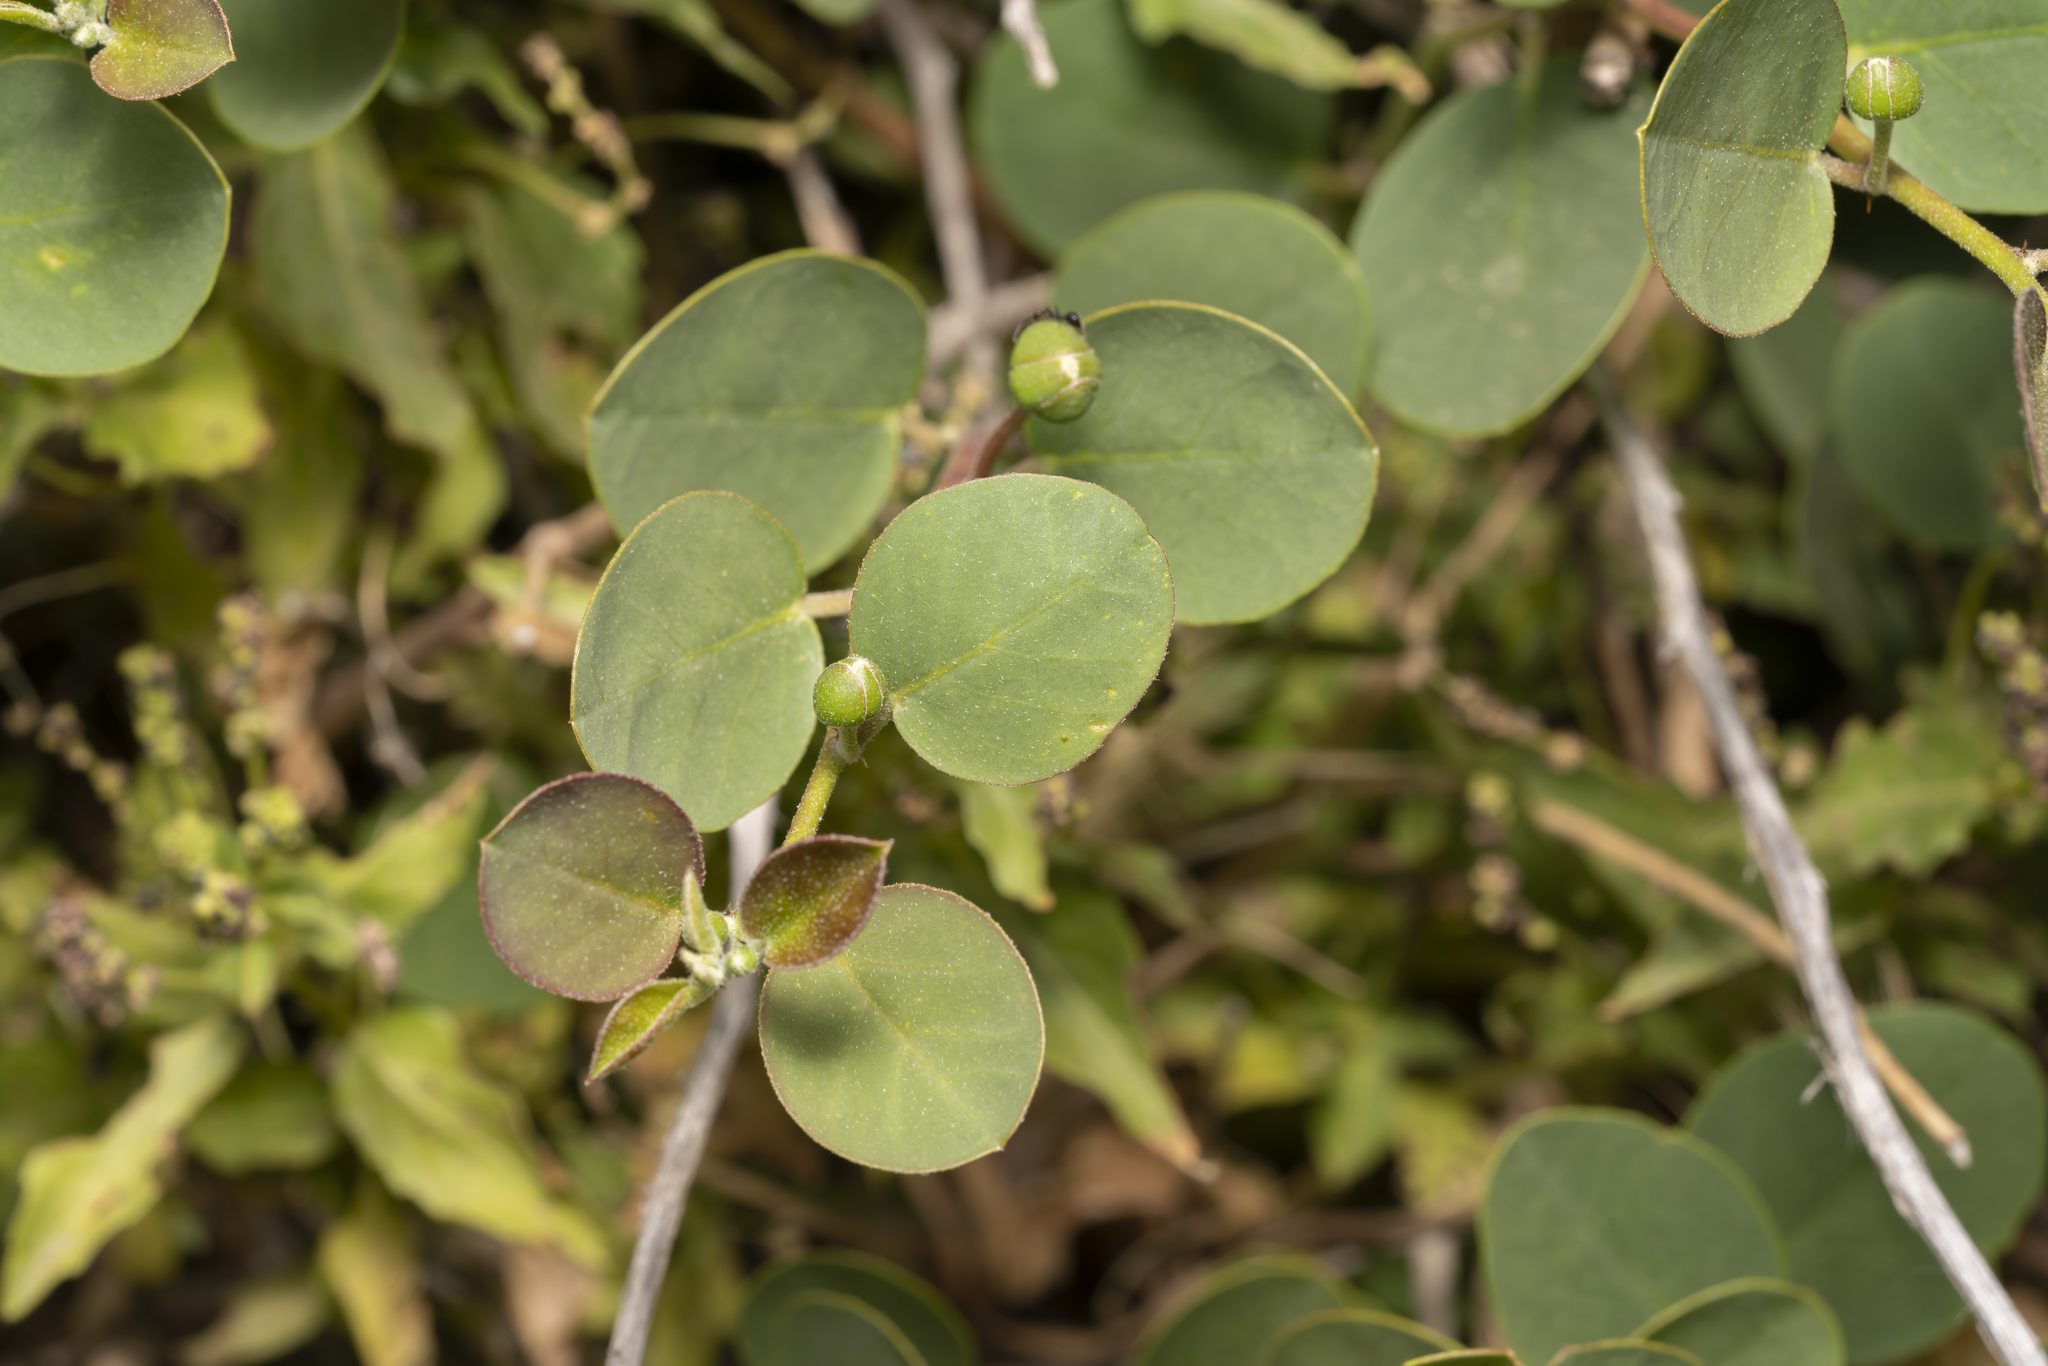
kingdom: Plantae
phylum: Tracheophyta
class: Magnoliopsida
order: Brassicales
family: Capparaceae
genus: Capparis
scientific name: Capparis orientalis
